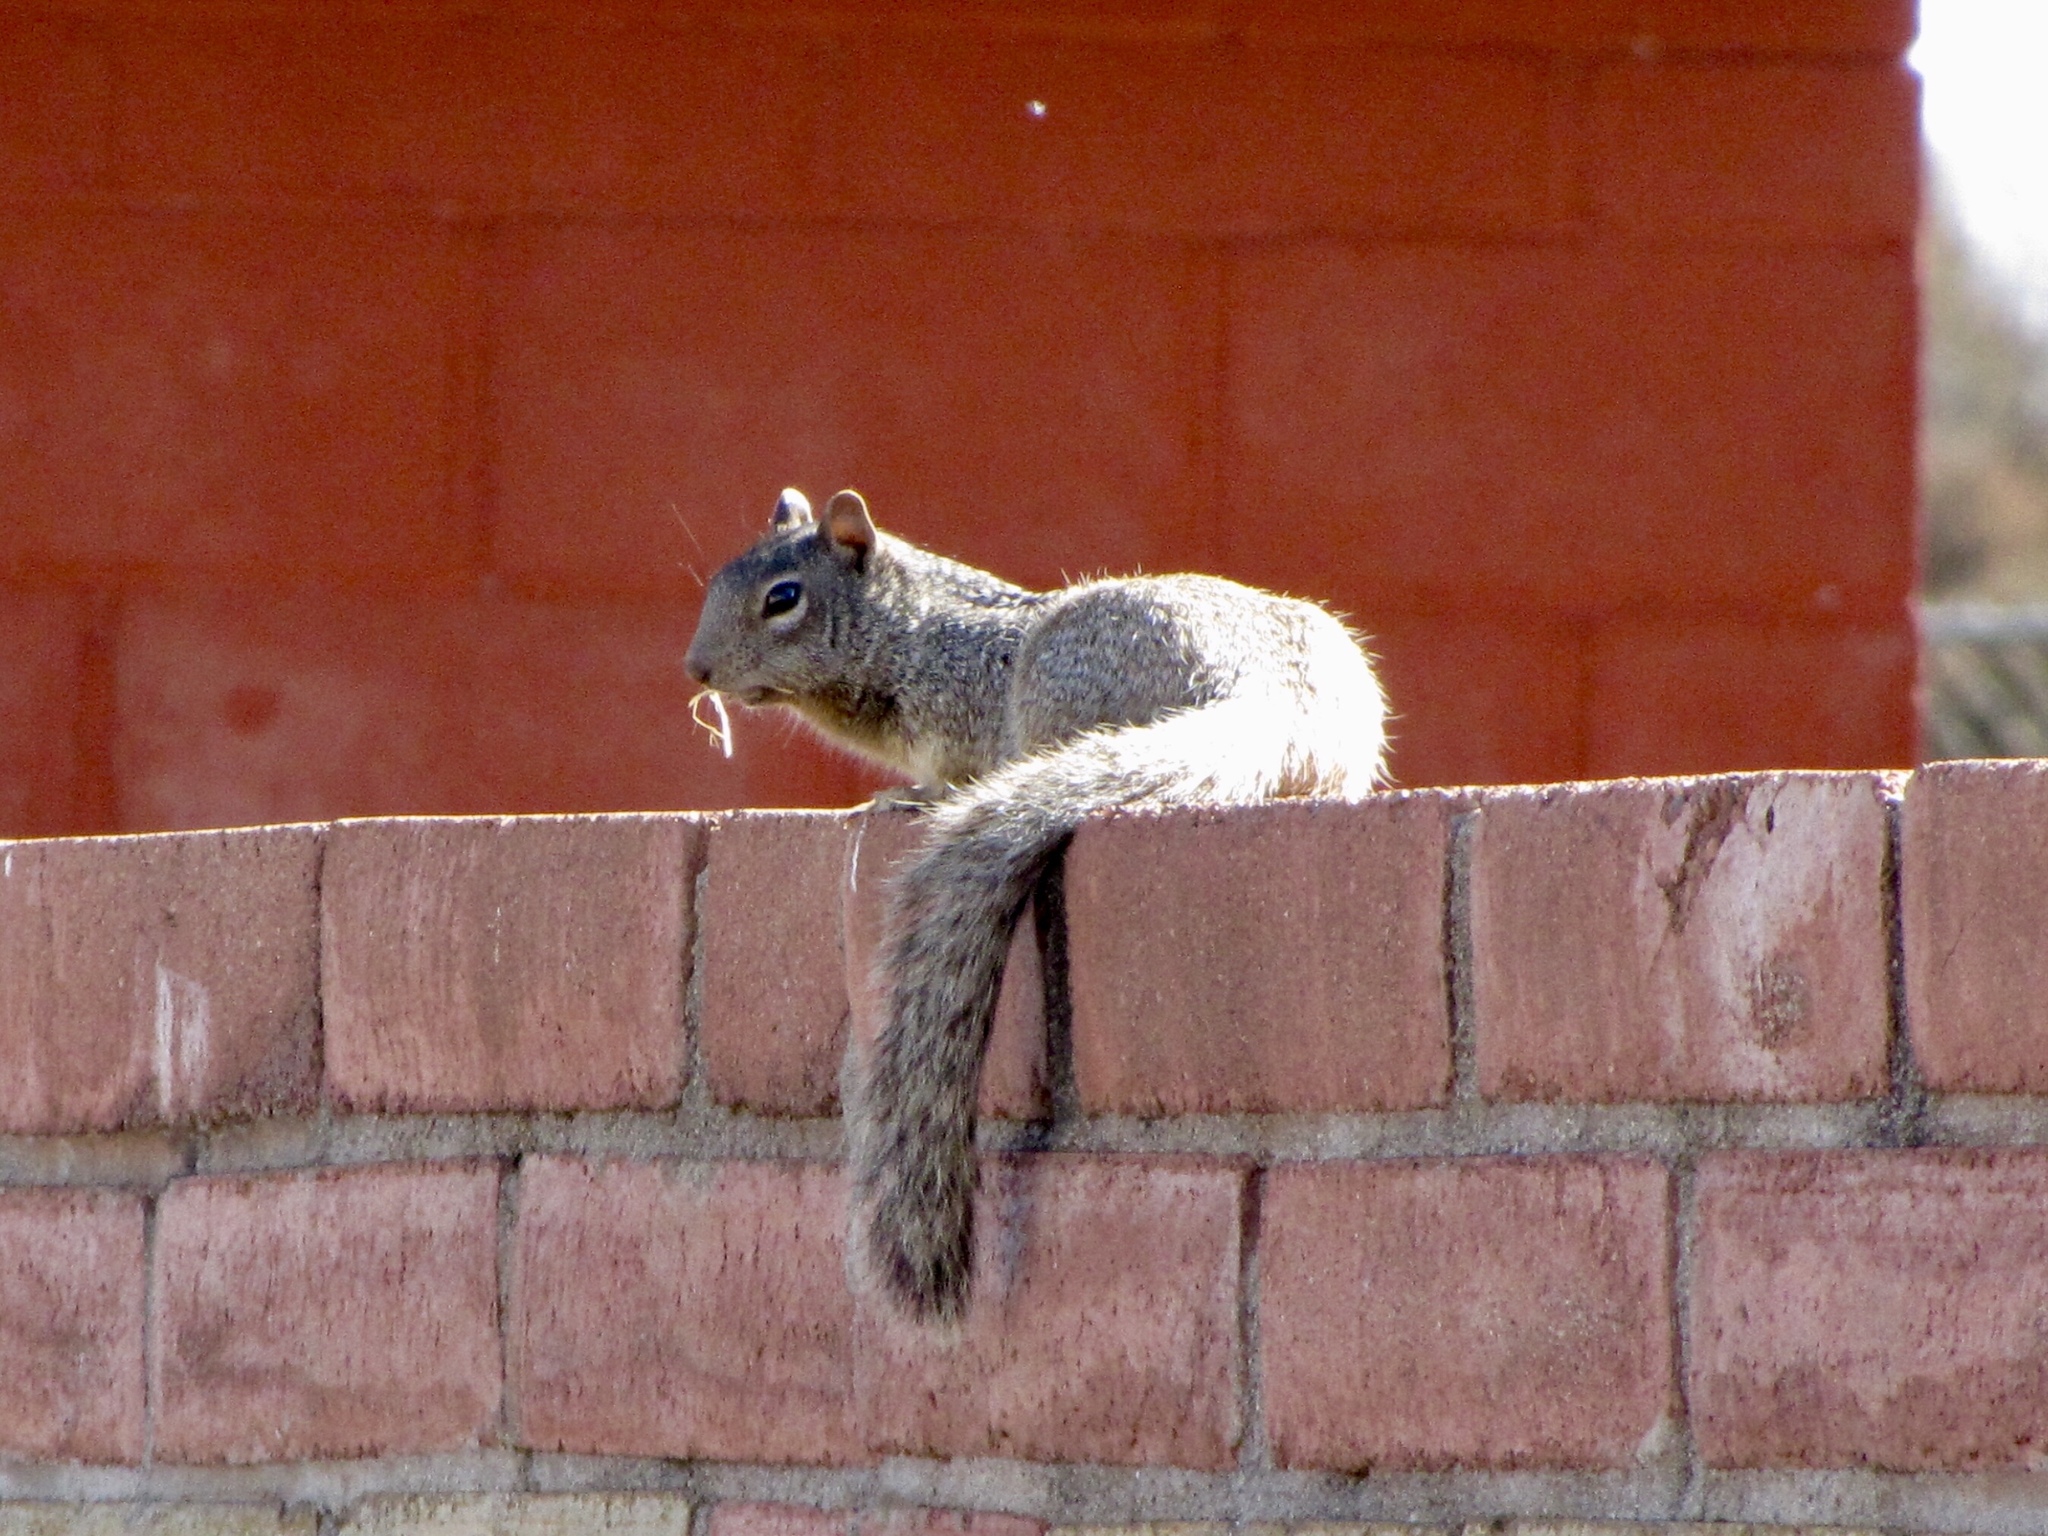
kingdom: Animalia
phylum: Chordata
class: Mammalia
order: Rodentia
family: Sciuridae
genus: Otospermophilus
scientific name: Otospermophilus variegatus
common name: Rock squirrel
